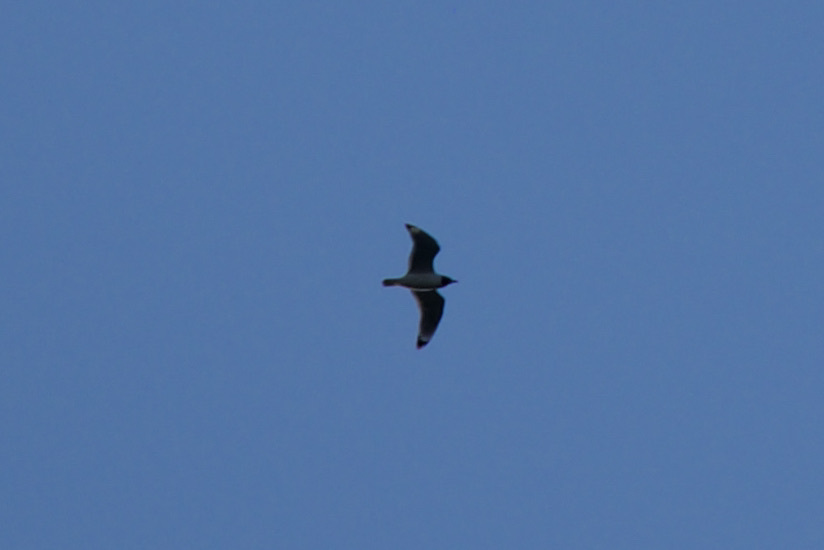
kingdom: Animalia
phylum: Chordata
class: Aves
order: Charadriiformes
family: Laridae
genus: Leucophaeus
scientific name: Leucophaeus pipixcan
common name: Franklin's gull
